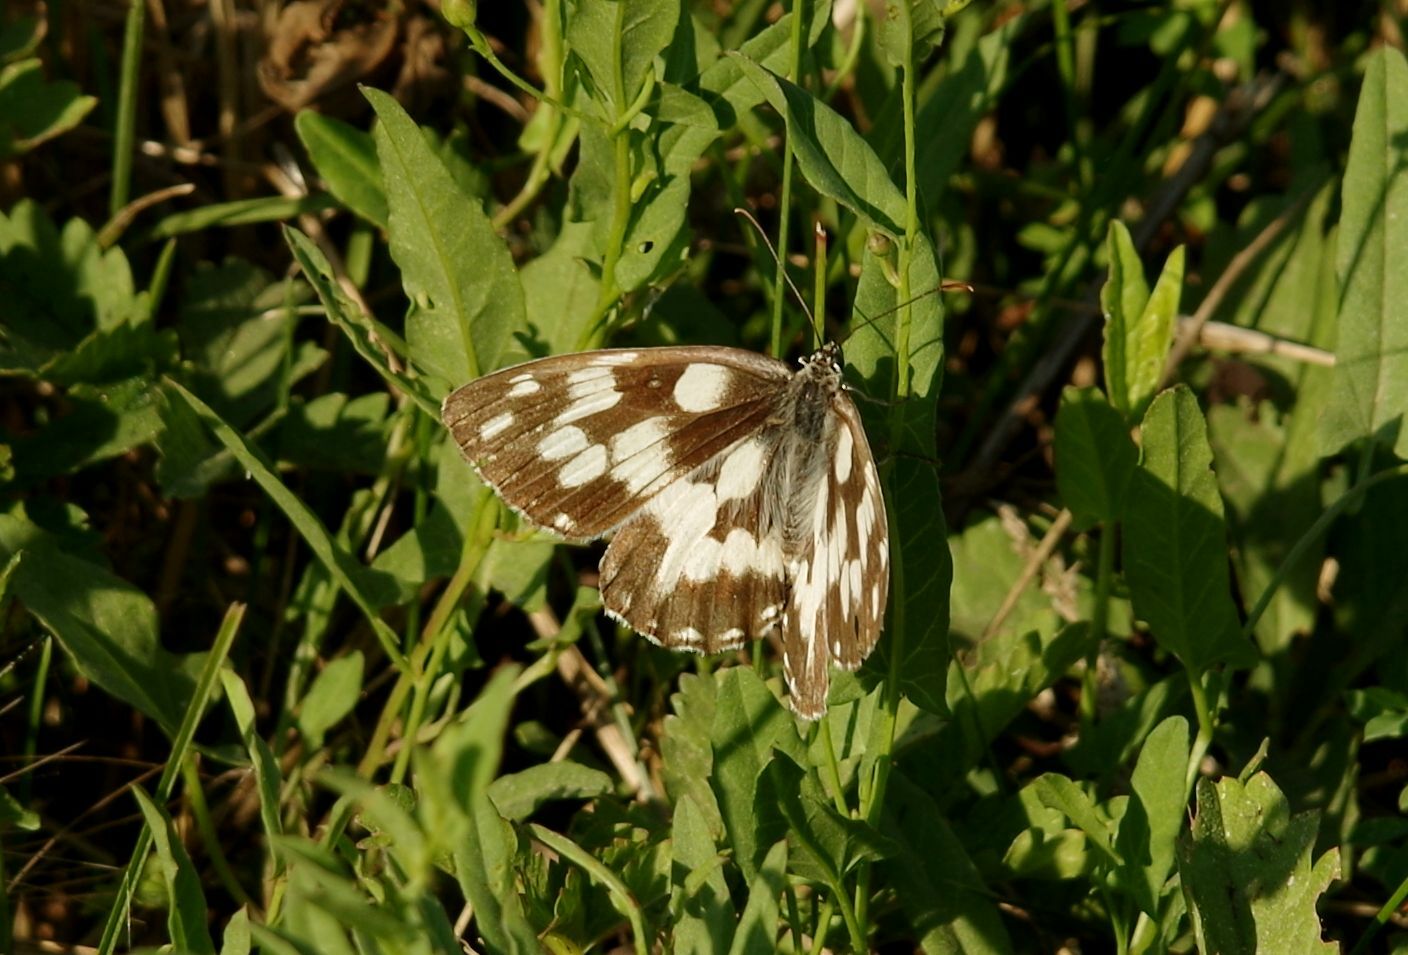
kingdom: Animalia
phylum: Arthropoda
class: Insecta
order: Lepidoptera
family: Nymphalidae
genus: Melanargia
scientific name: Melanargia galathea
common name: Marbled white
